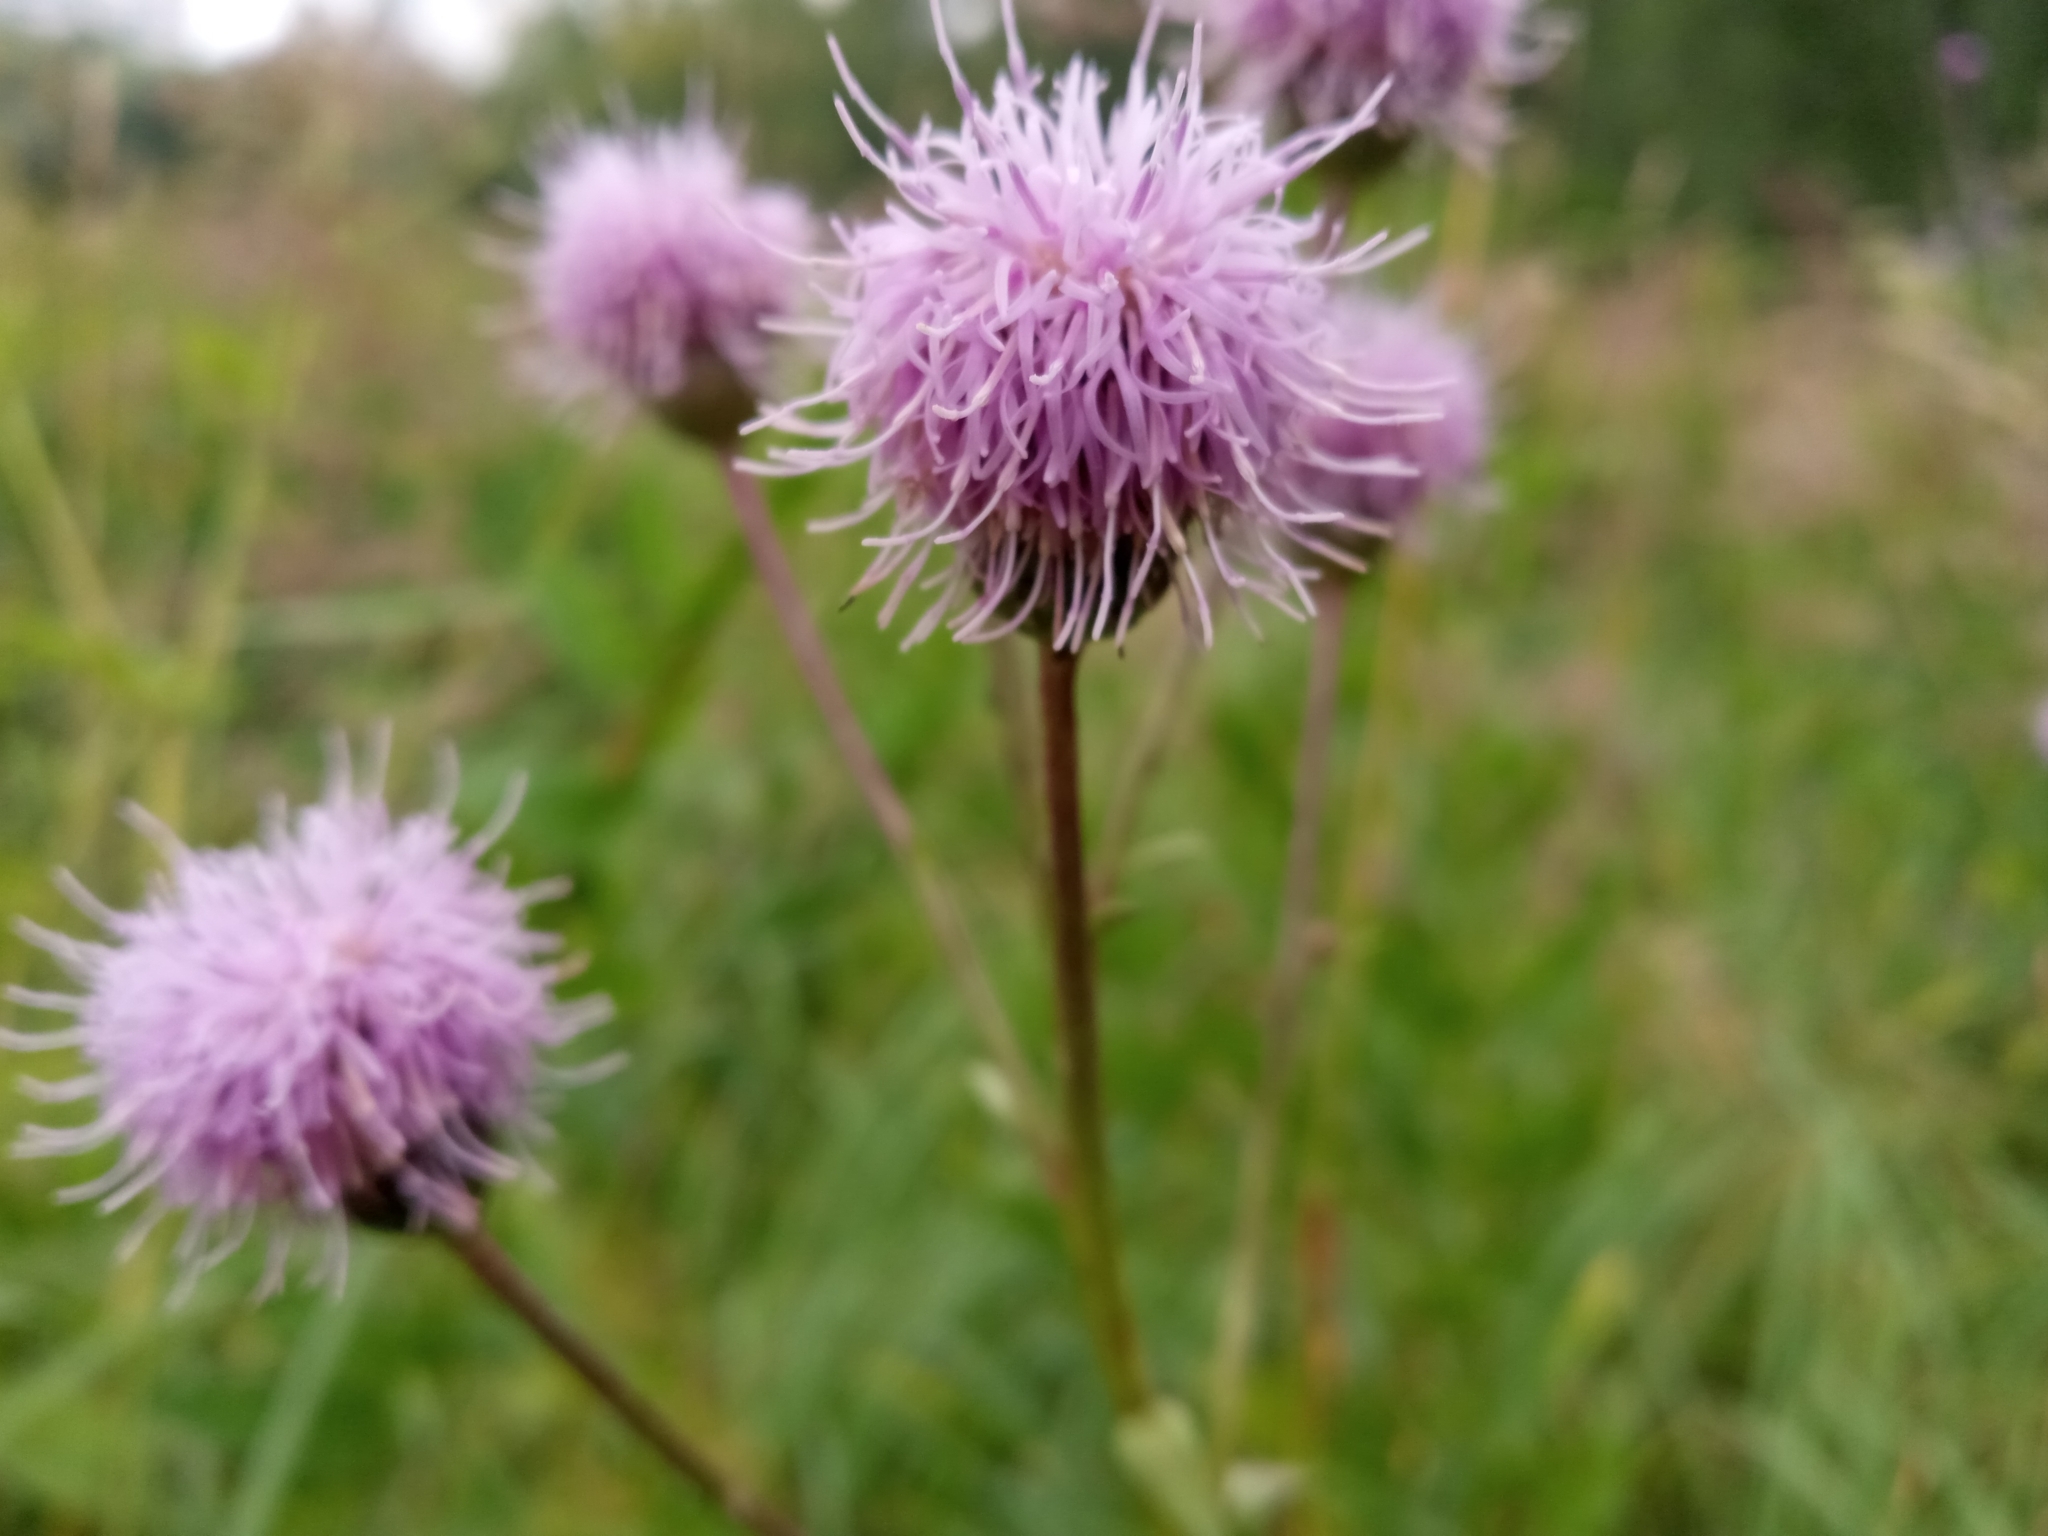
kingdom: Plantae
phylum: Tracheophyta
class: Magnoliopsida
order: Asterales
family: Asteraceae
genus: Cirsium
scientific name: Cirsium arvense
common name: Creeping thistle
